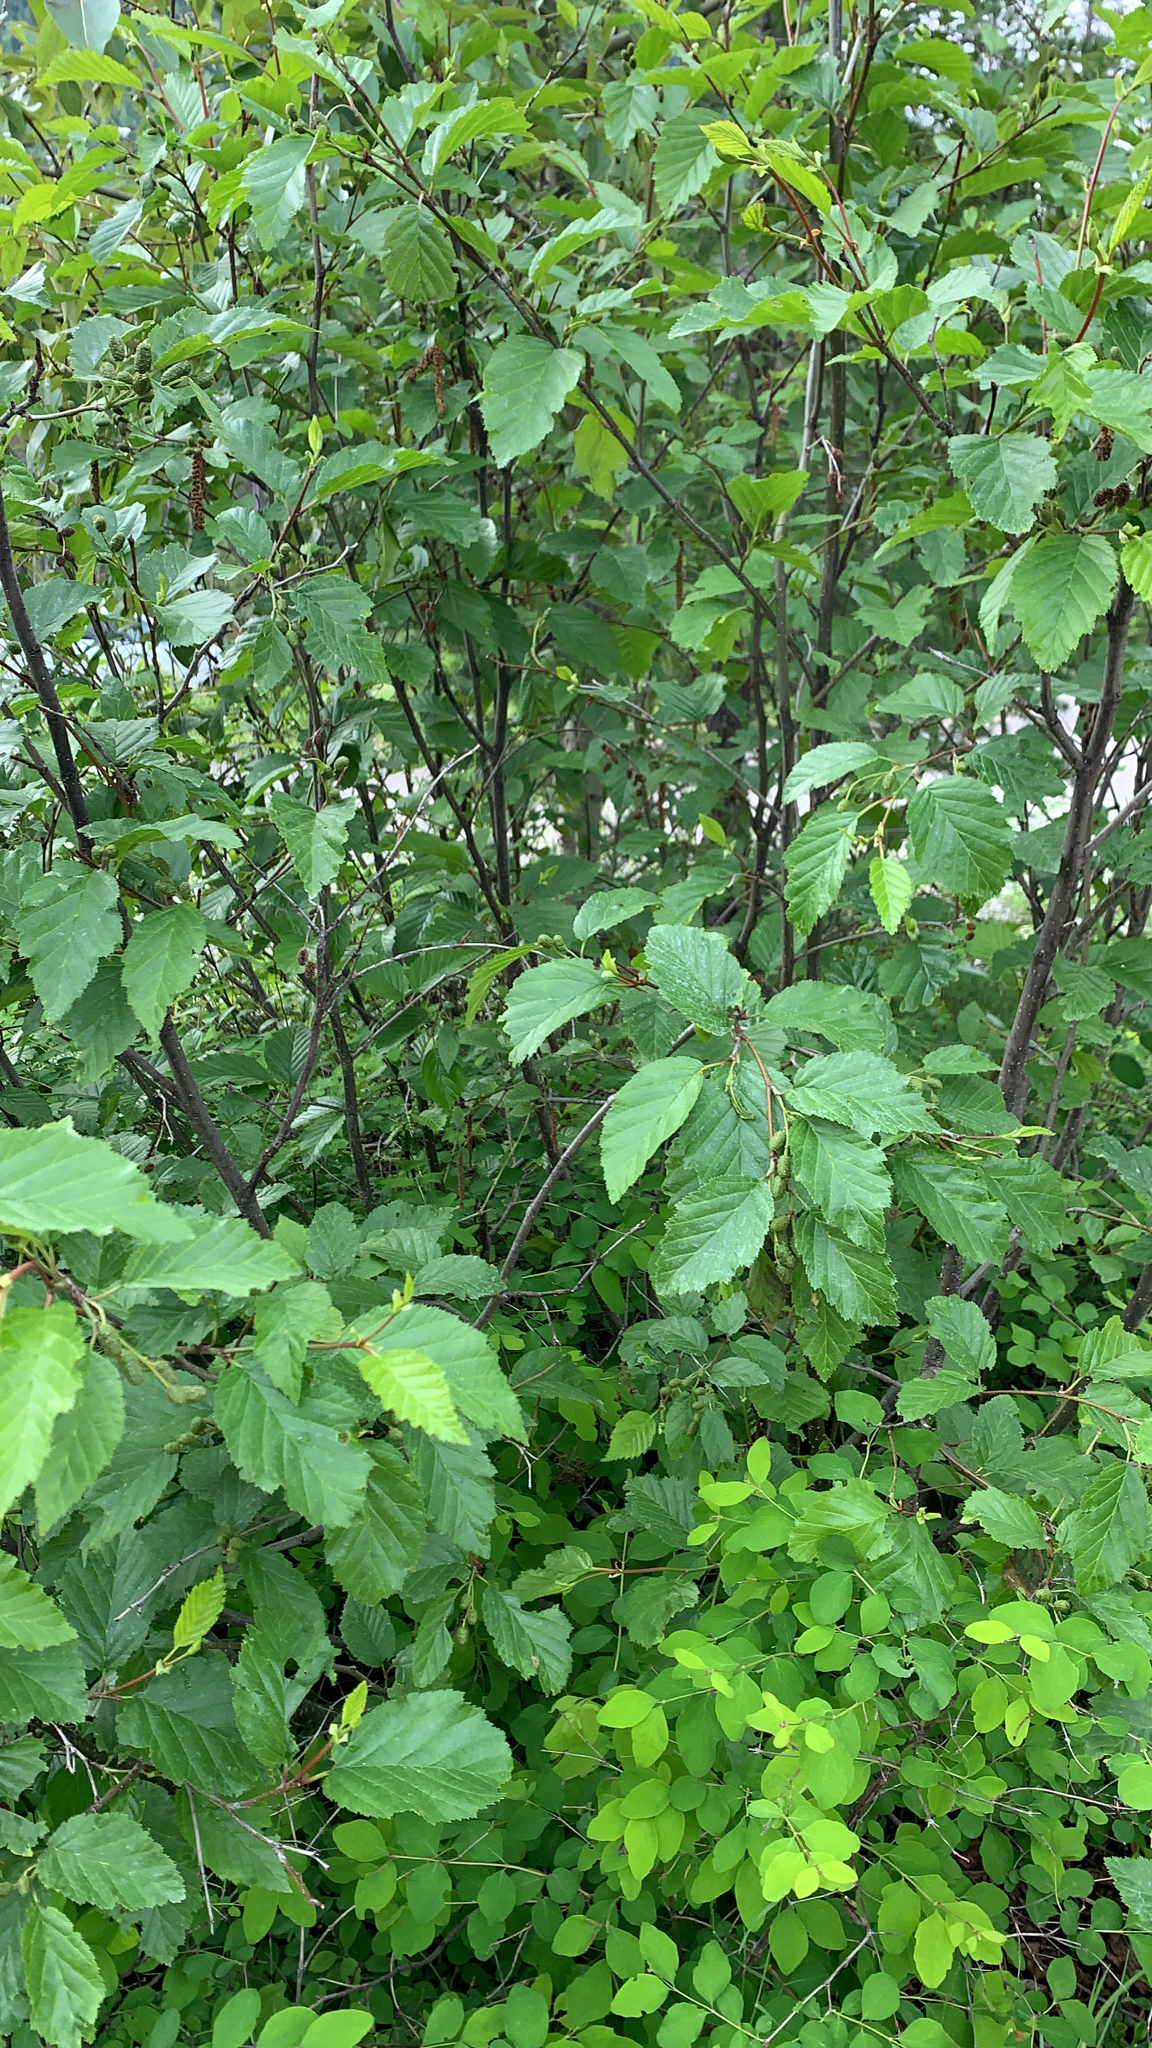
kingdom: Plantae
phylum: Tracheophyta
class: Magnoliopsida
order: Fagales
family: Betulaceae
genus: Alnus
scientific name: Alnus alnobetula
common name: Green alder
